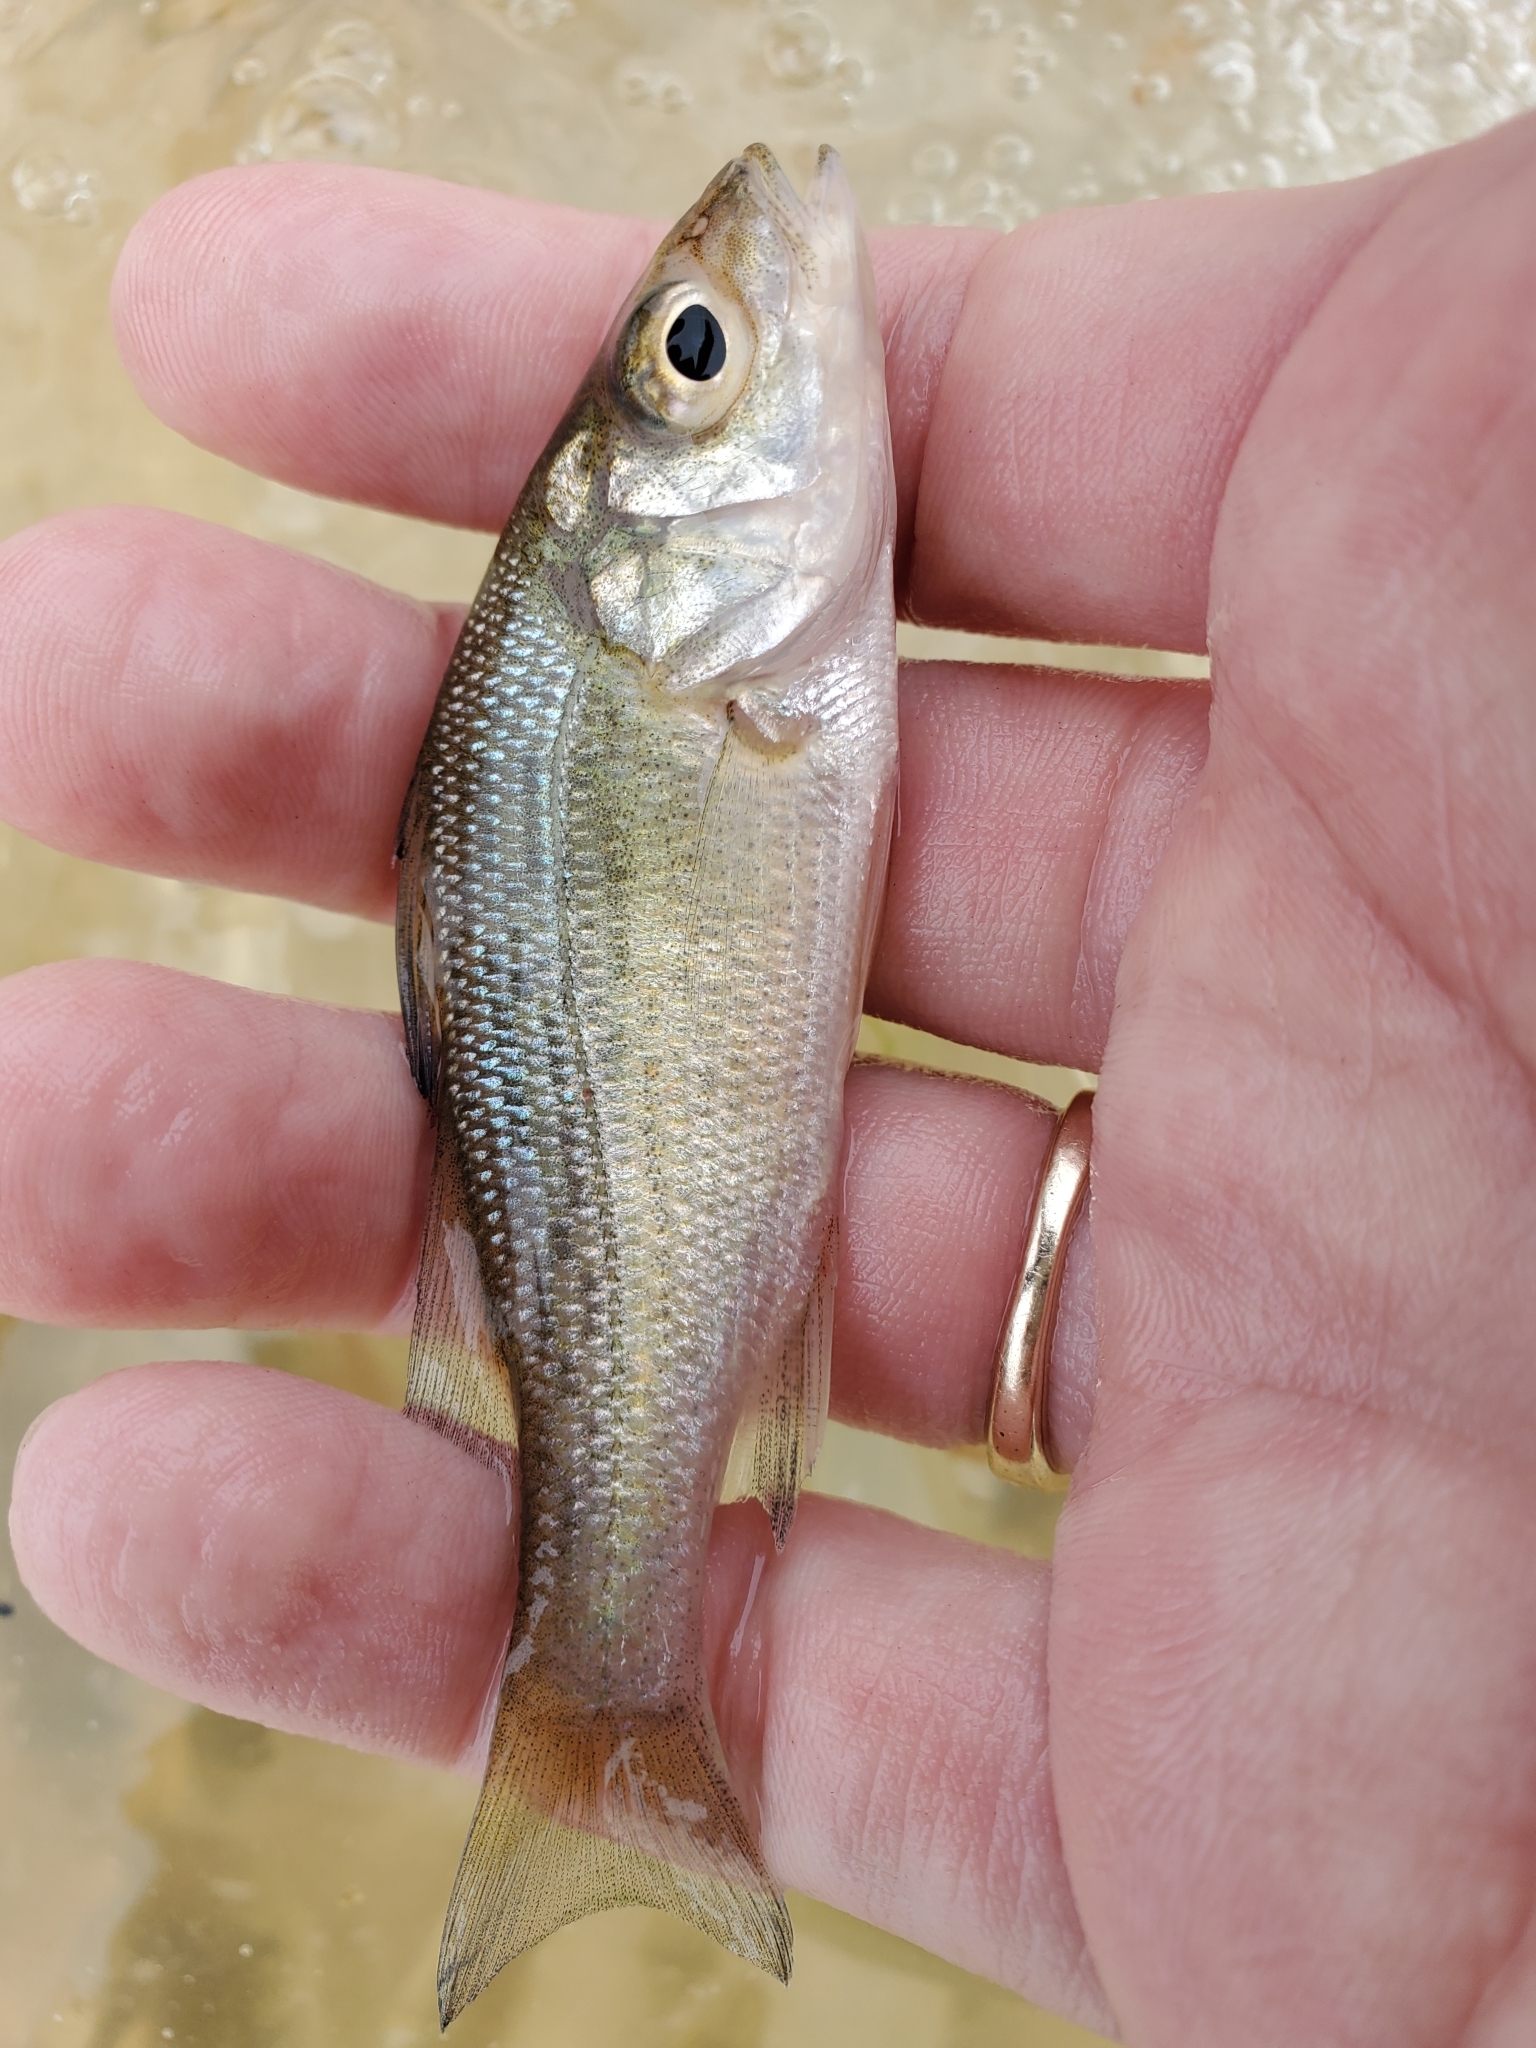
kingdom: Animalia
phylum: Chordata
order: Perciformes
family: Moronidae
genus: Morone
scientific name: Morone americana
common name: White perch
